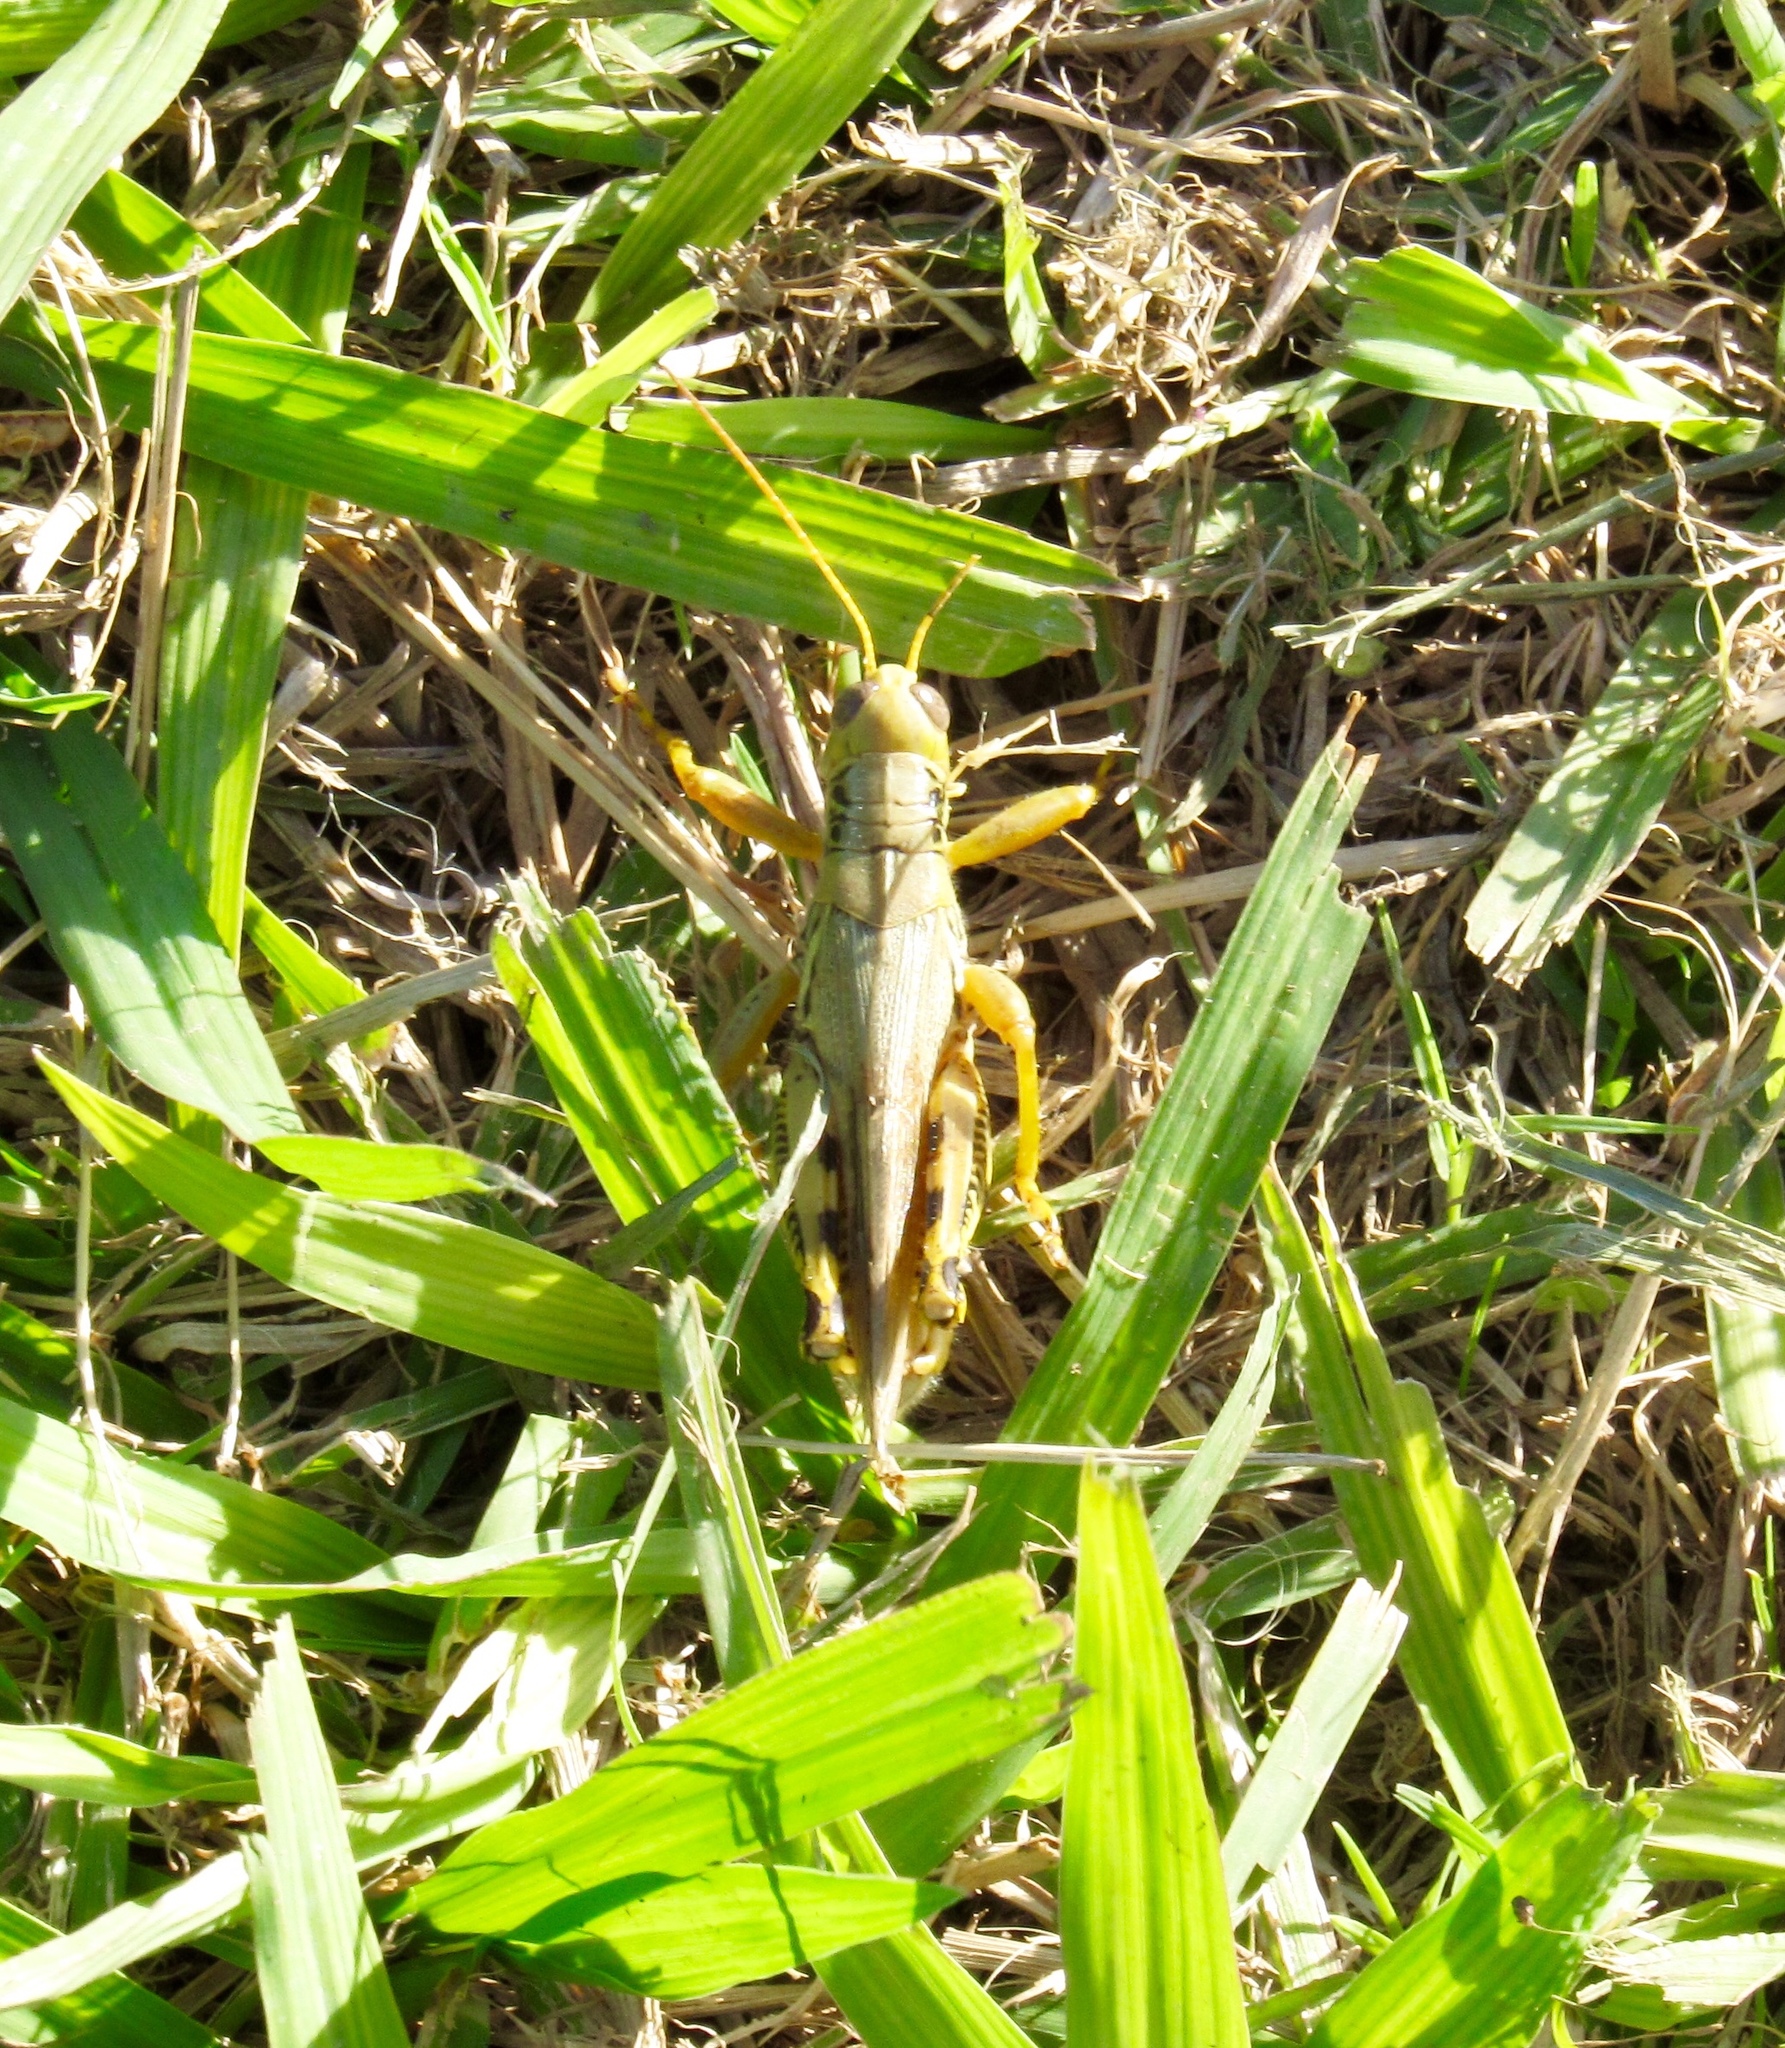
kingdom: Animalia
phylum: Arthropoda
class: Insecta
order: Orthoptera
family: Acrididae
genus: Melanoplus
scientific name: Melanoplus differentialis
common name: Differential grasshopper
